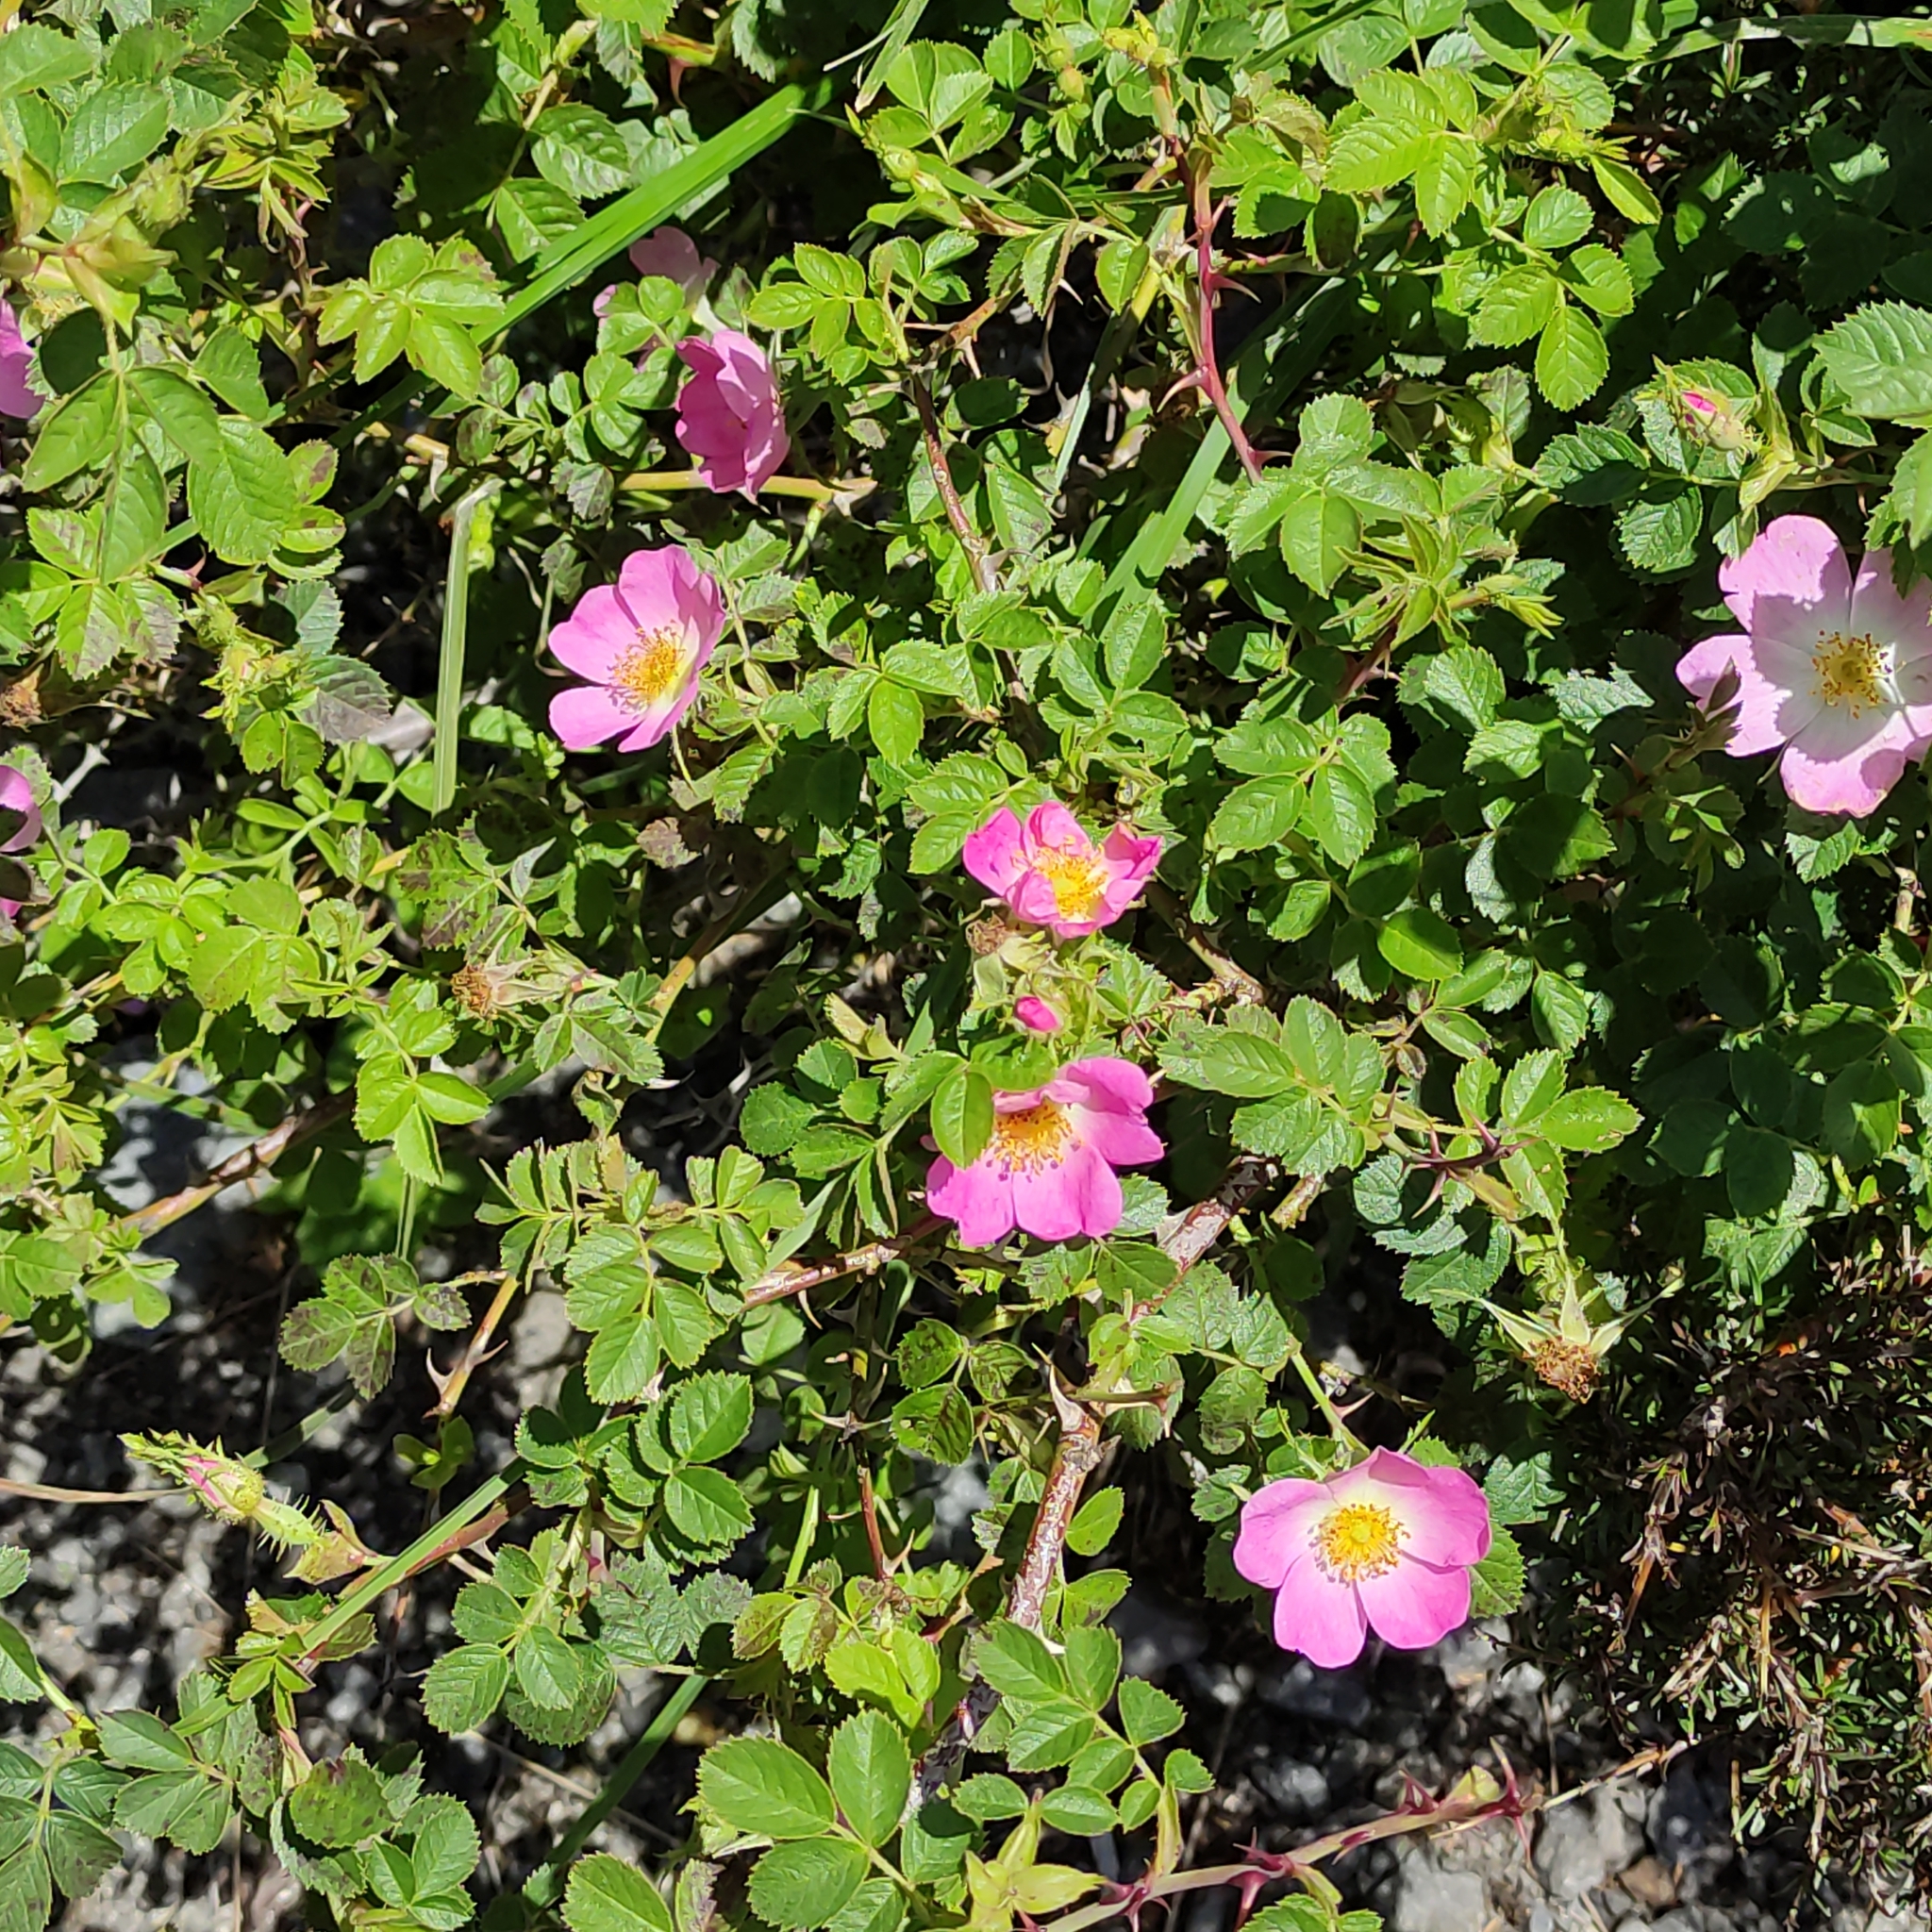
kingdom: Plantae
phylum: Tracheophyta
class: Magnoliopsida
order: Rosales
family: Rosaceae
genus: Rosa
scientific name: Rosa rubiginosa
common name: Sweet-briar
